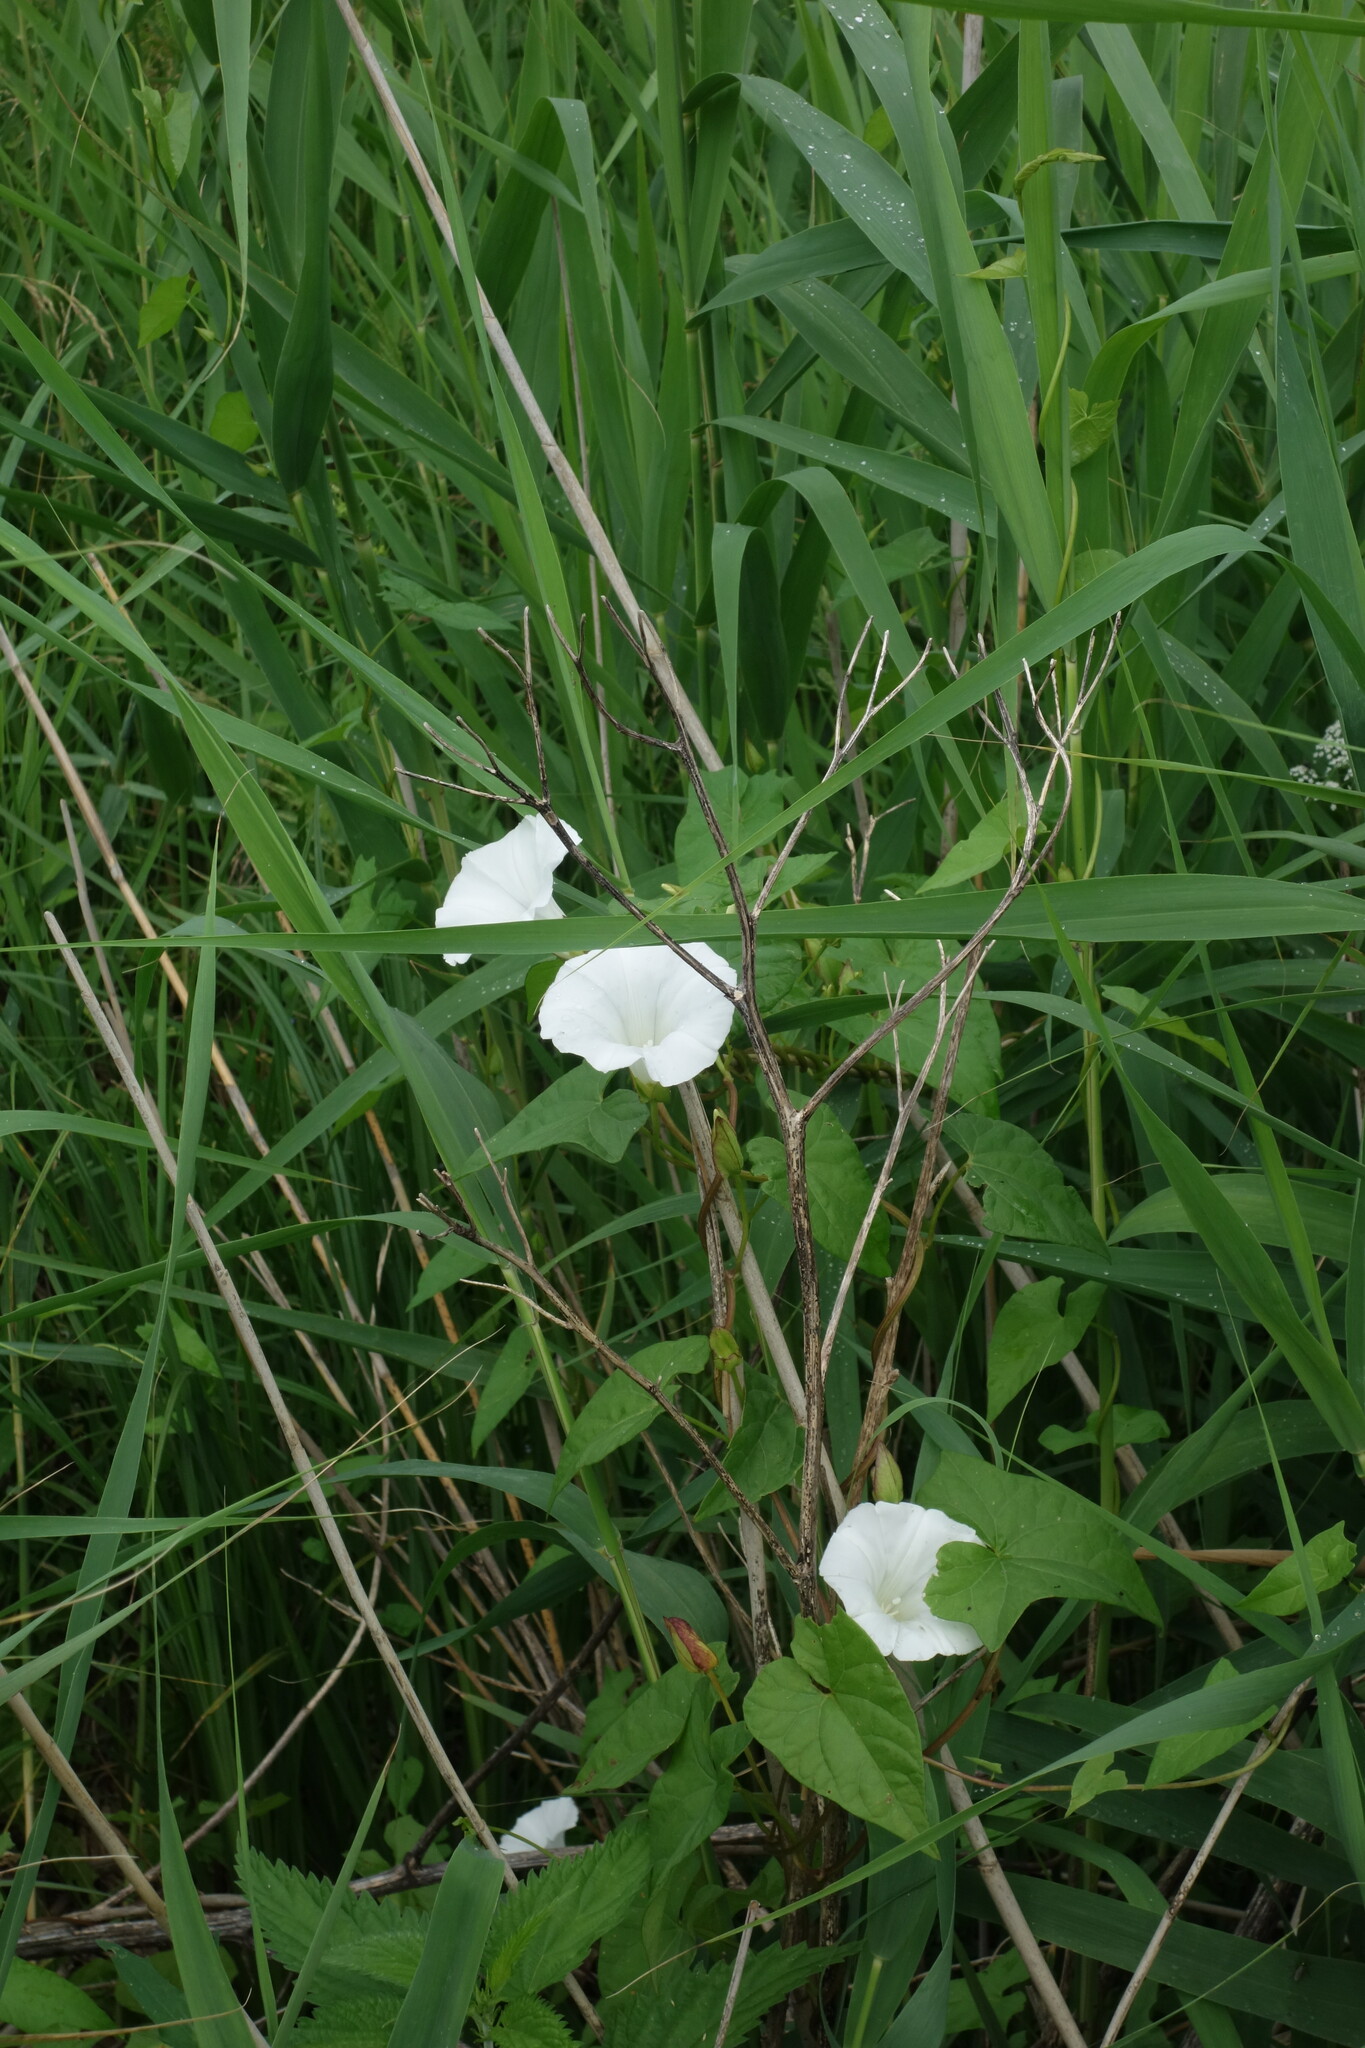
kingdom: Plantae
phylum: Tracheophyta
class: Magnoliopsida
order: Solanales
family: Convolvulaceae
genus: Calystegia
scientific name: Calystegia sepium
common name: Hedge bindweed
